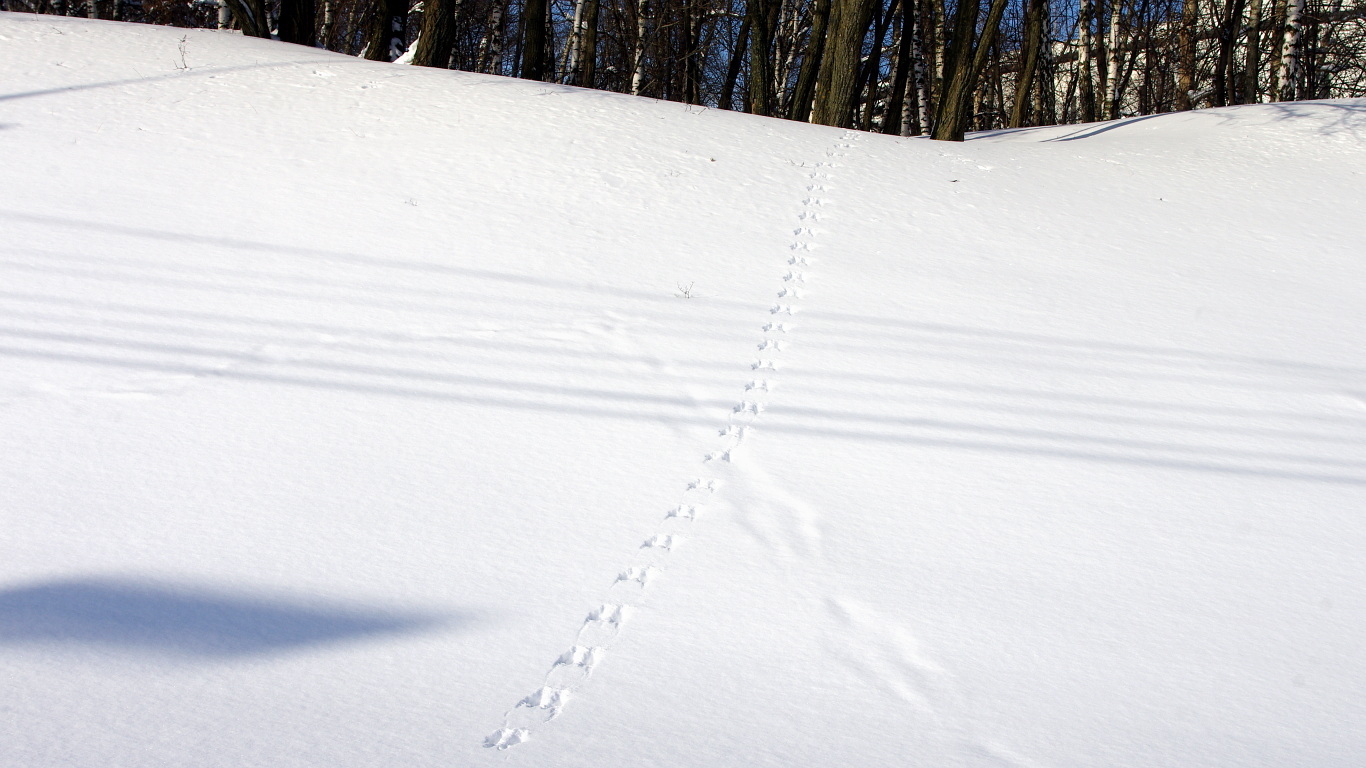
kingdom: Animalia
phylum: Chordata
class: Mammalia
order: Rodentia
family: Sciuridae
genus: Sciurus
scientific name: Sciurus vulgaris
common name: Eurasian red squirrel
